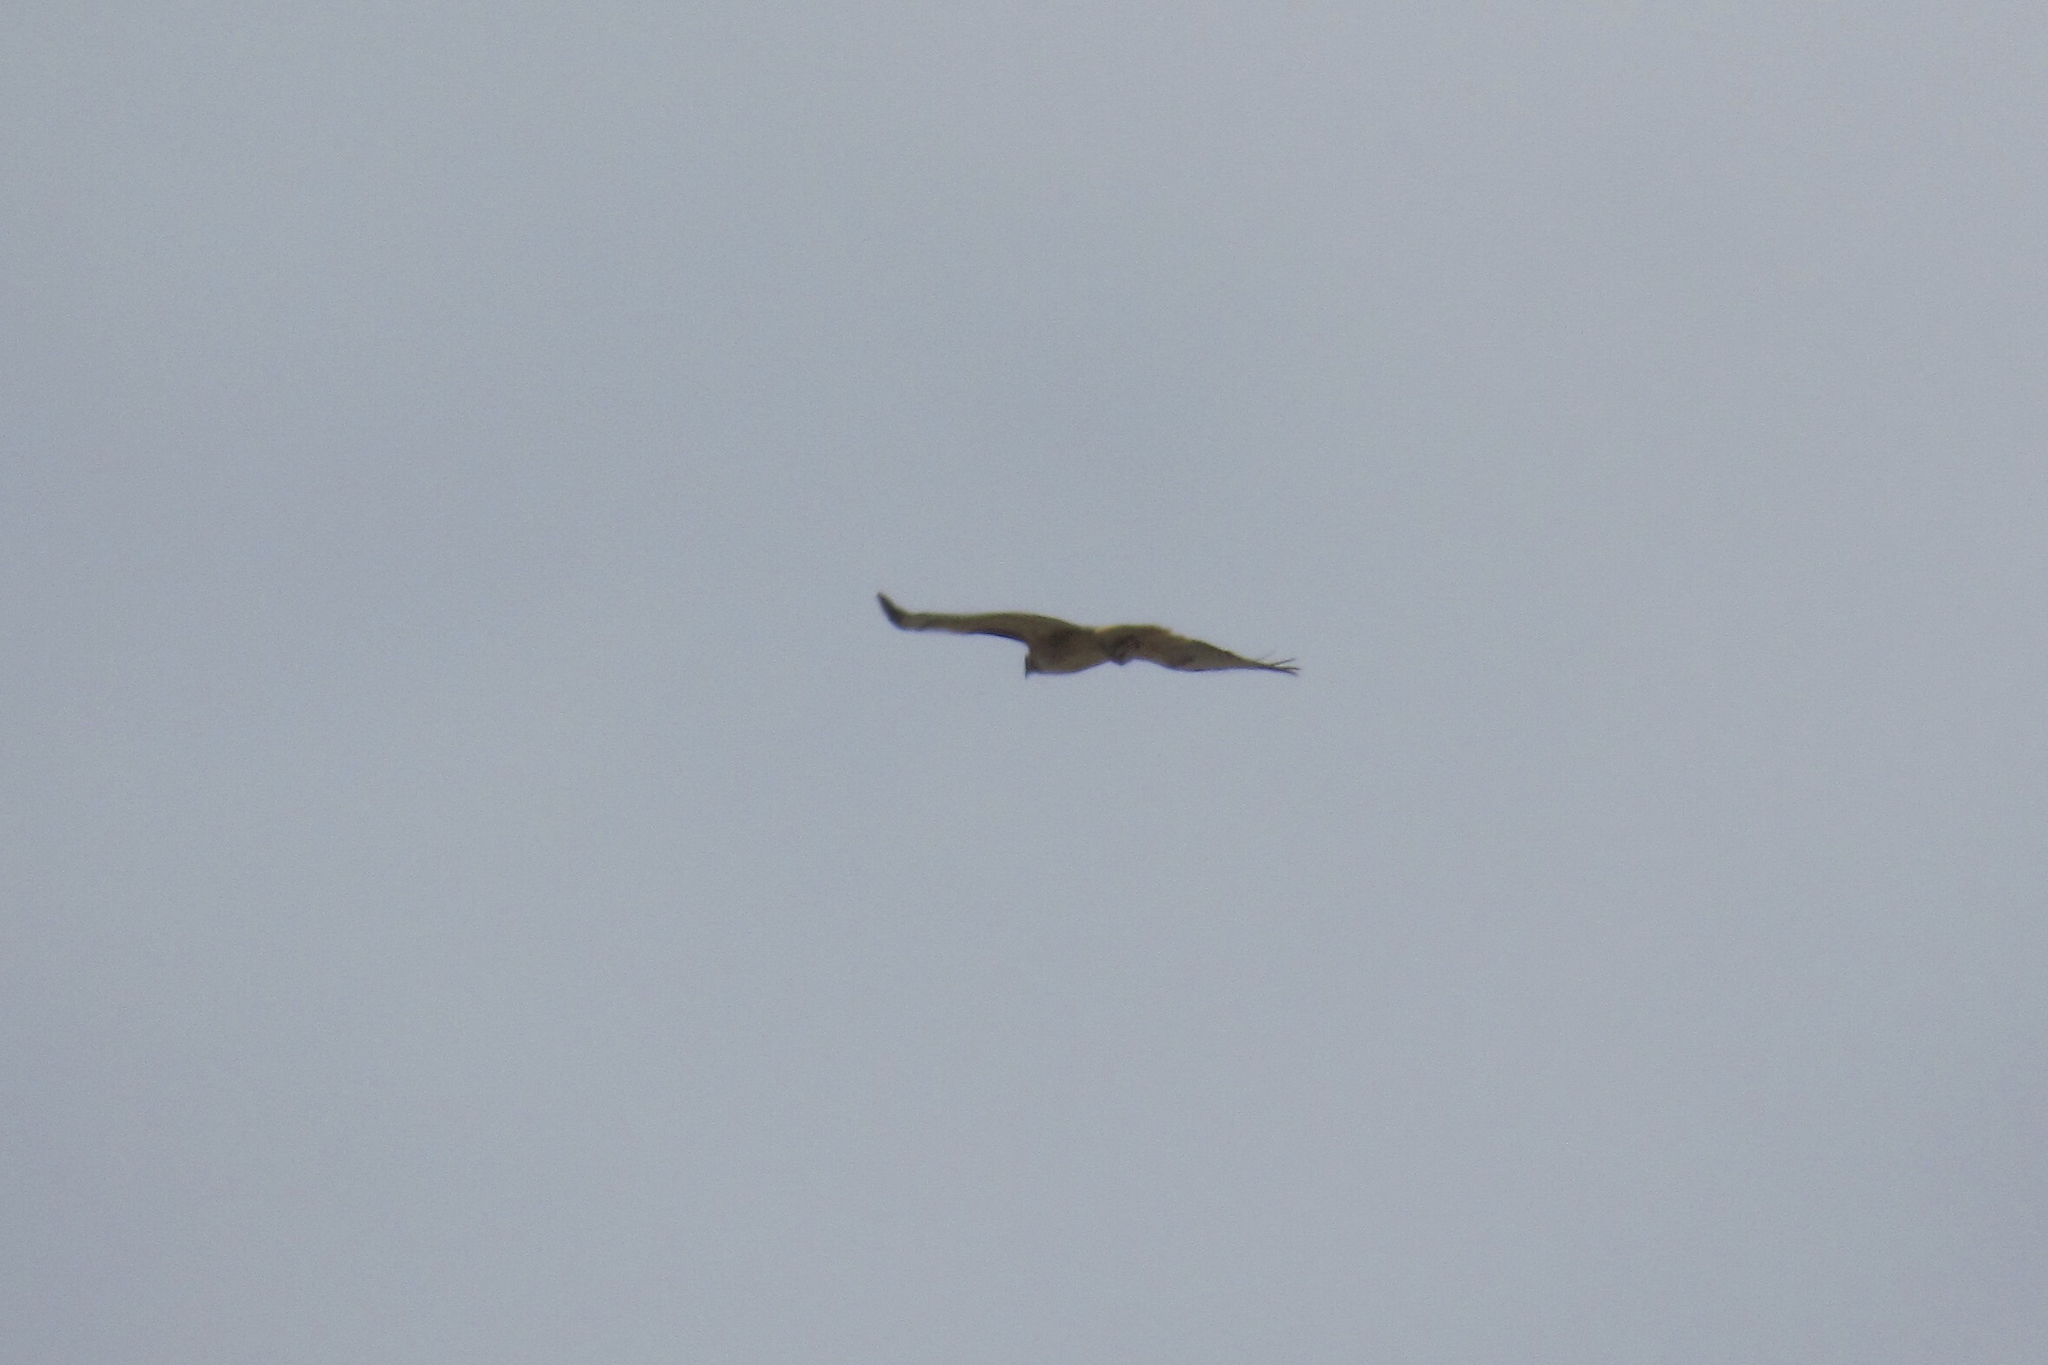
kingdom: Animalia
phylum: Chordata
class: Aves
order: Accipitriformes
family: Accipitridae
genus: Buteo
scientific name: Buteo jamaicensis
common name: Red-tailed hawk
